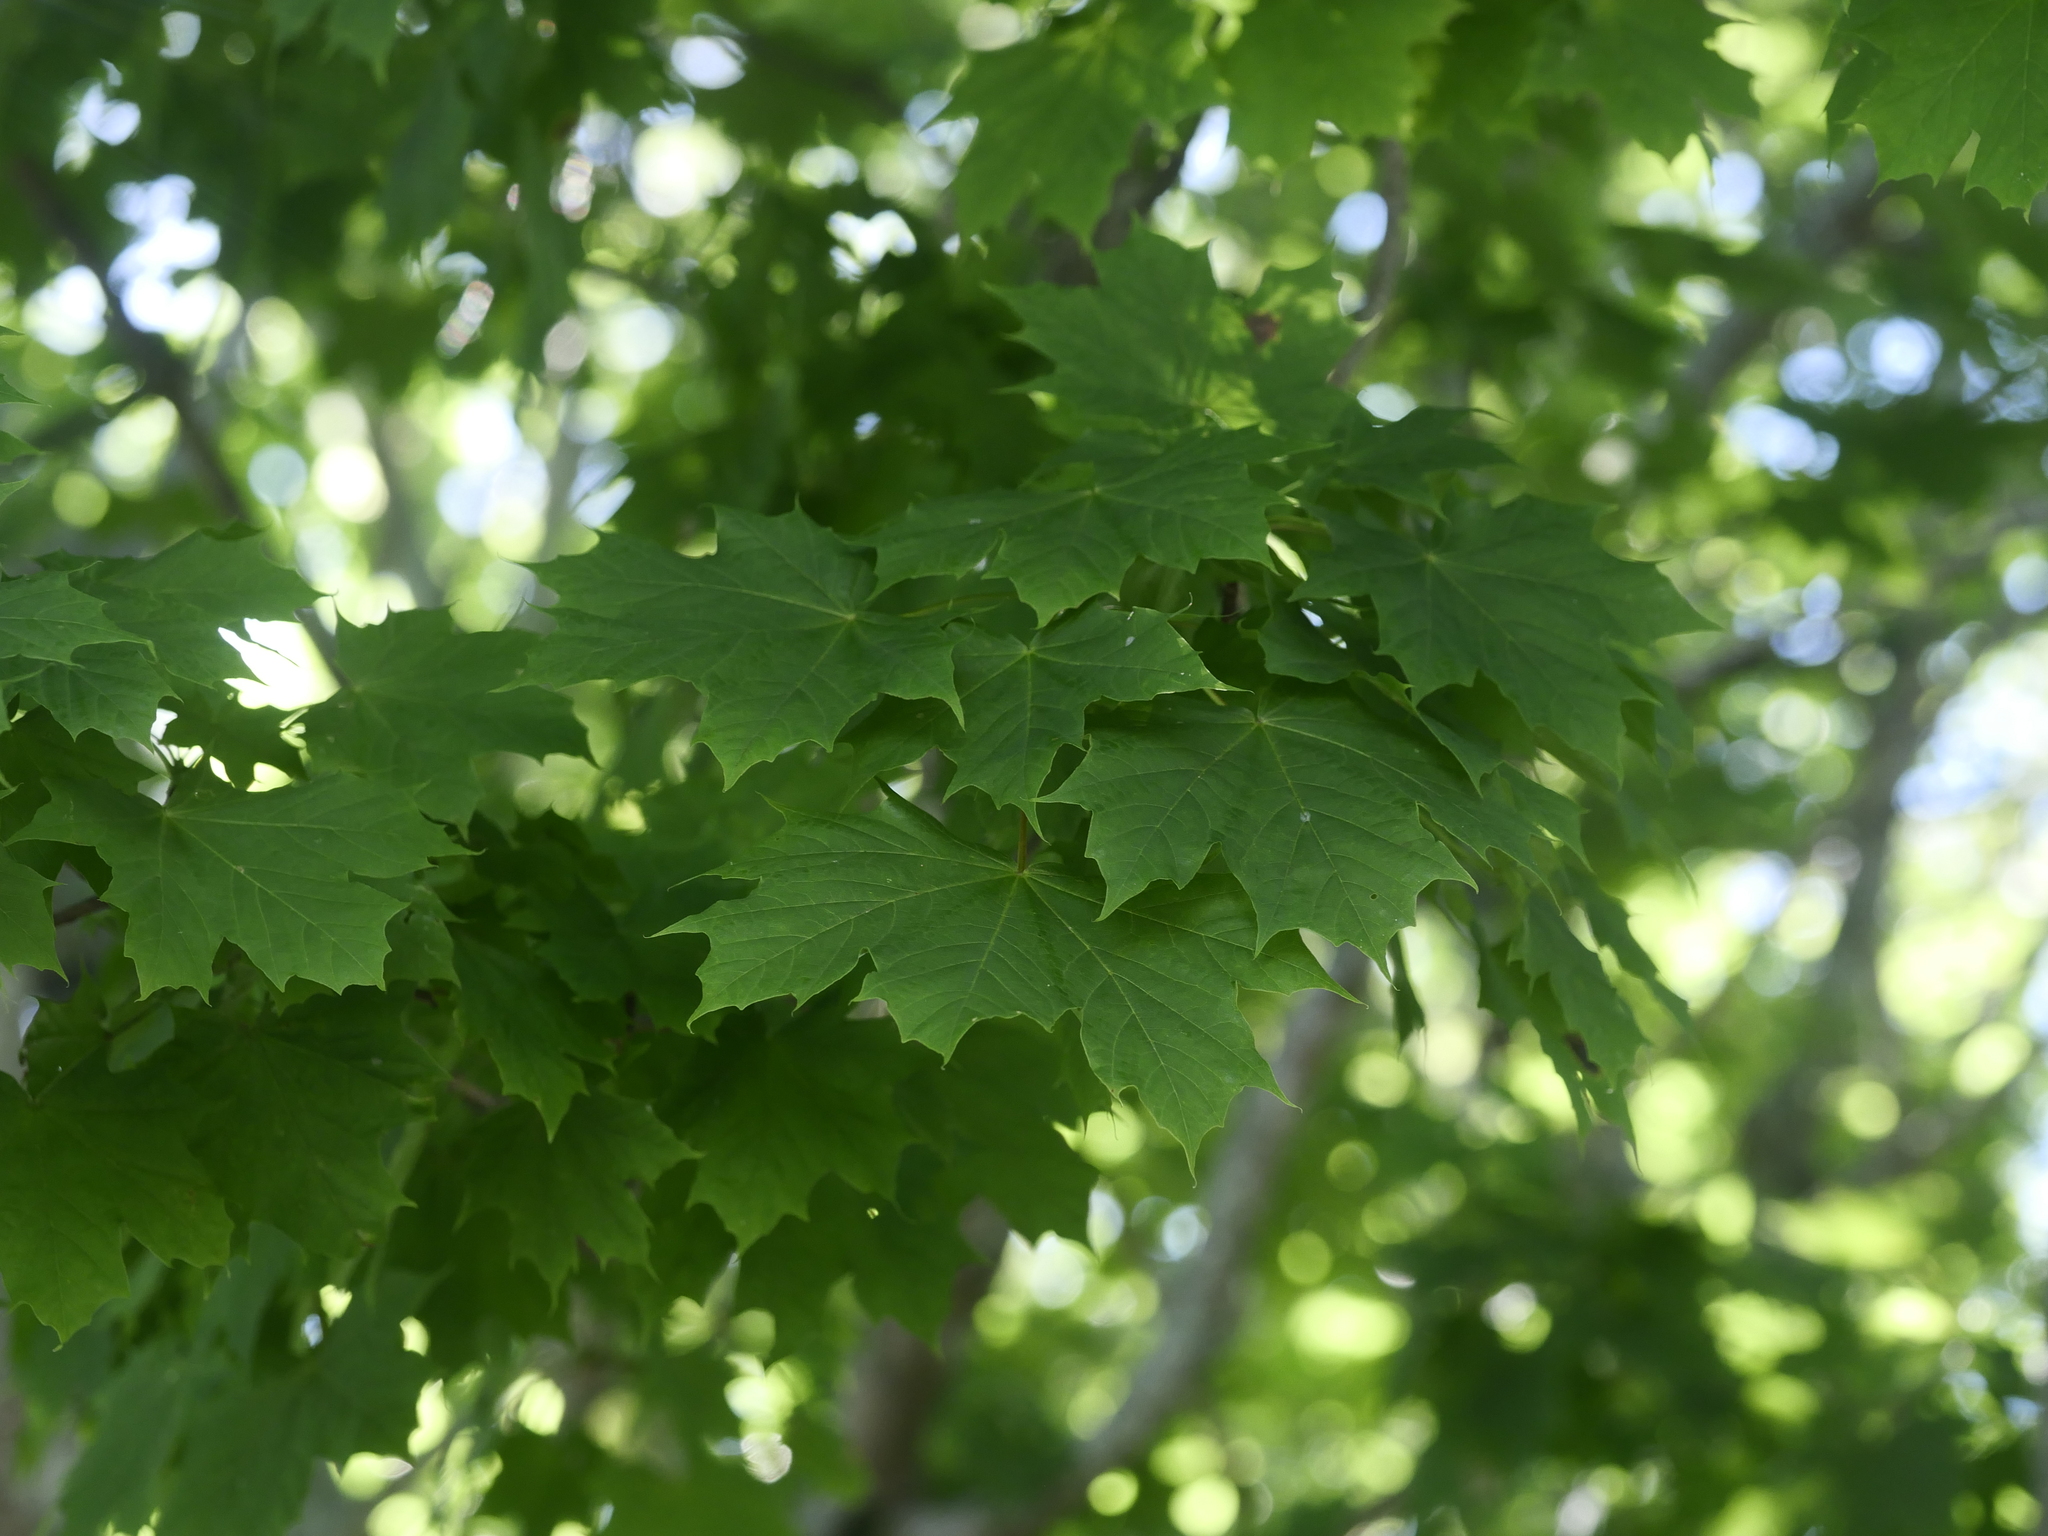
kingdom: Plantae
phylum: Tracheophyta
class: Magnoliopsida
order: Sapindales
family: Sapindaceae
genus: Acer
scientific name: Acer platanoides
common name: Norway maple
